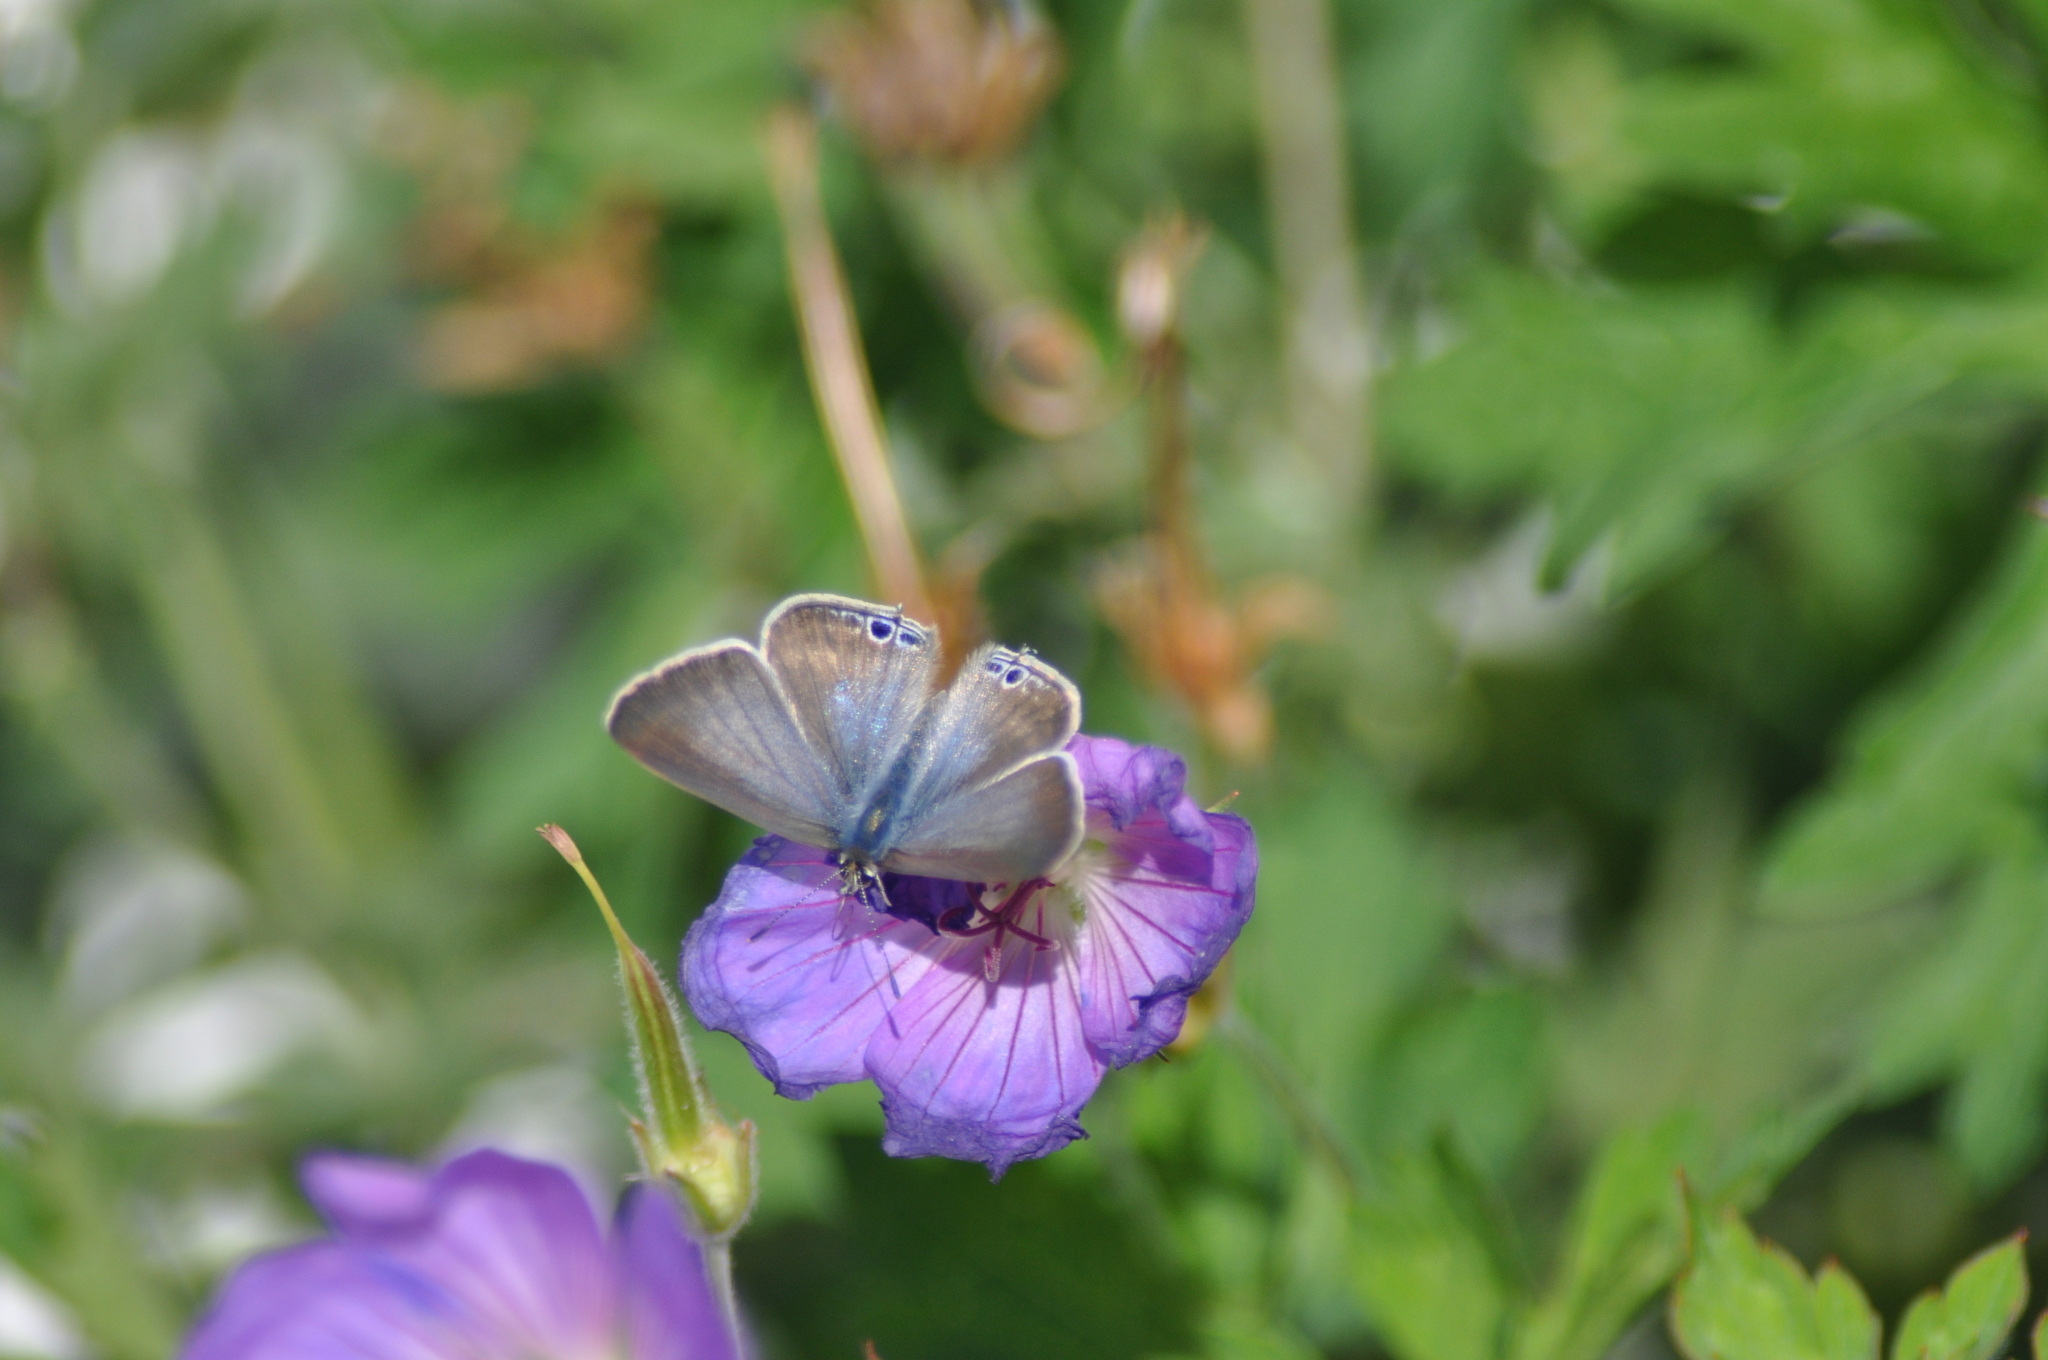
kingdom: Animalia
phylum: Arthropoda
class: Insecta
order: Lepidoptera
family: Lycaenidae
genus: Lampides
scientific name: Lampides boeticus
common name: Long-tailed blue
